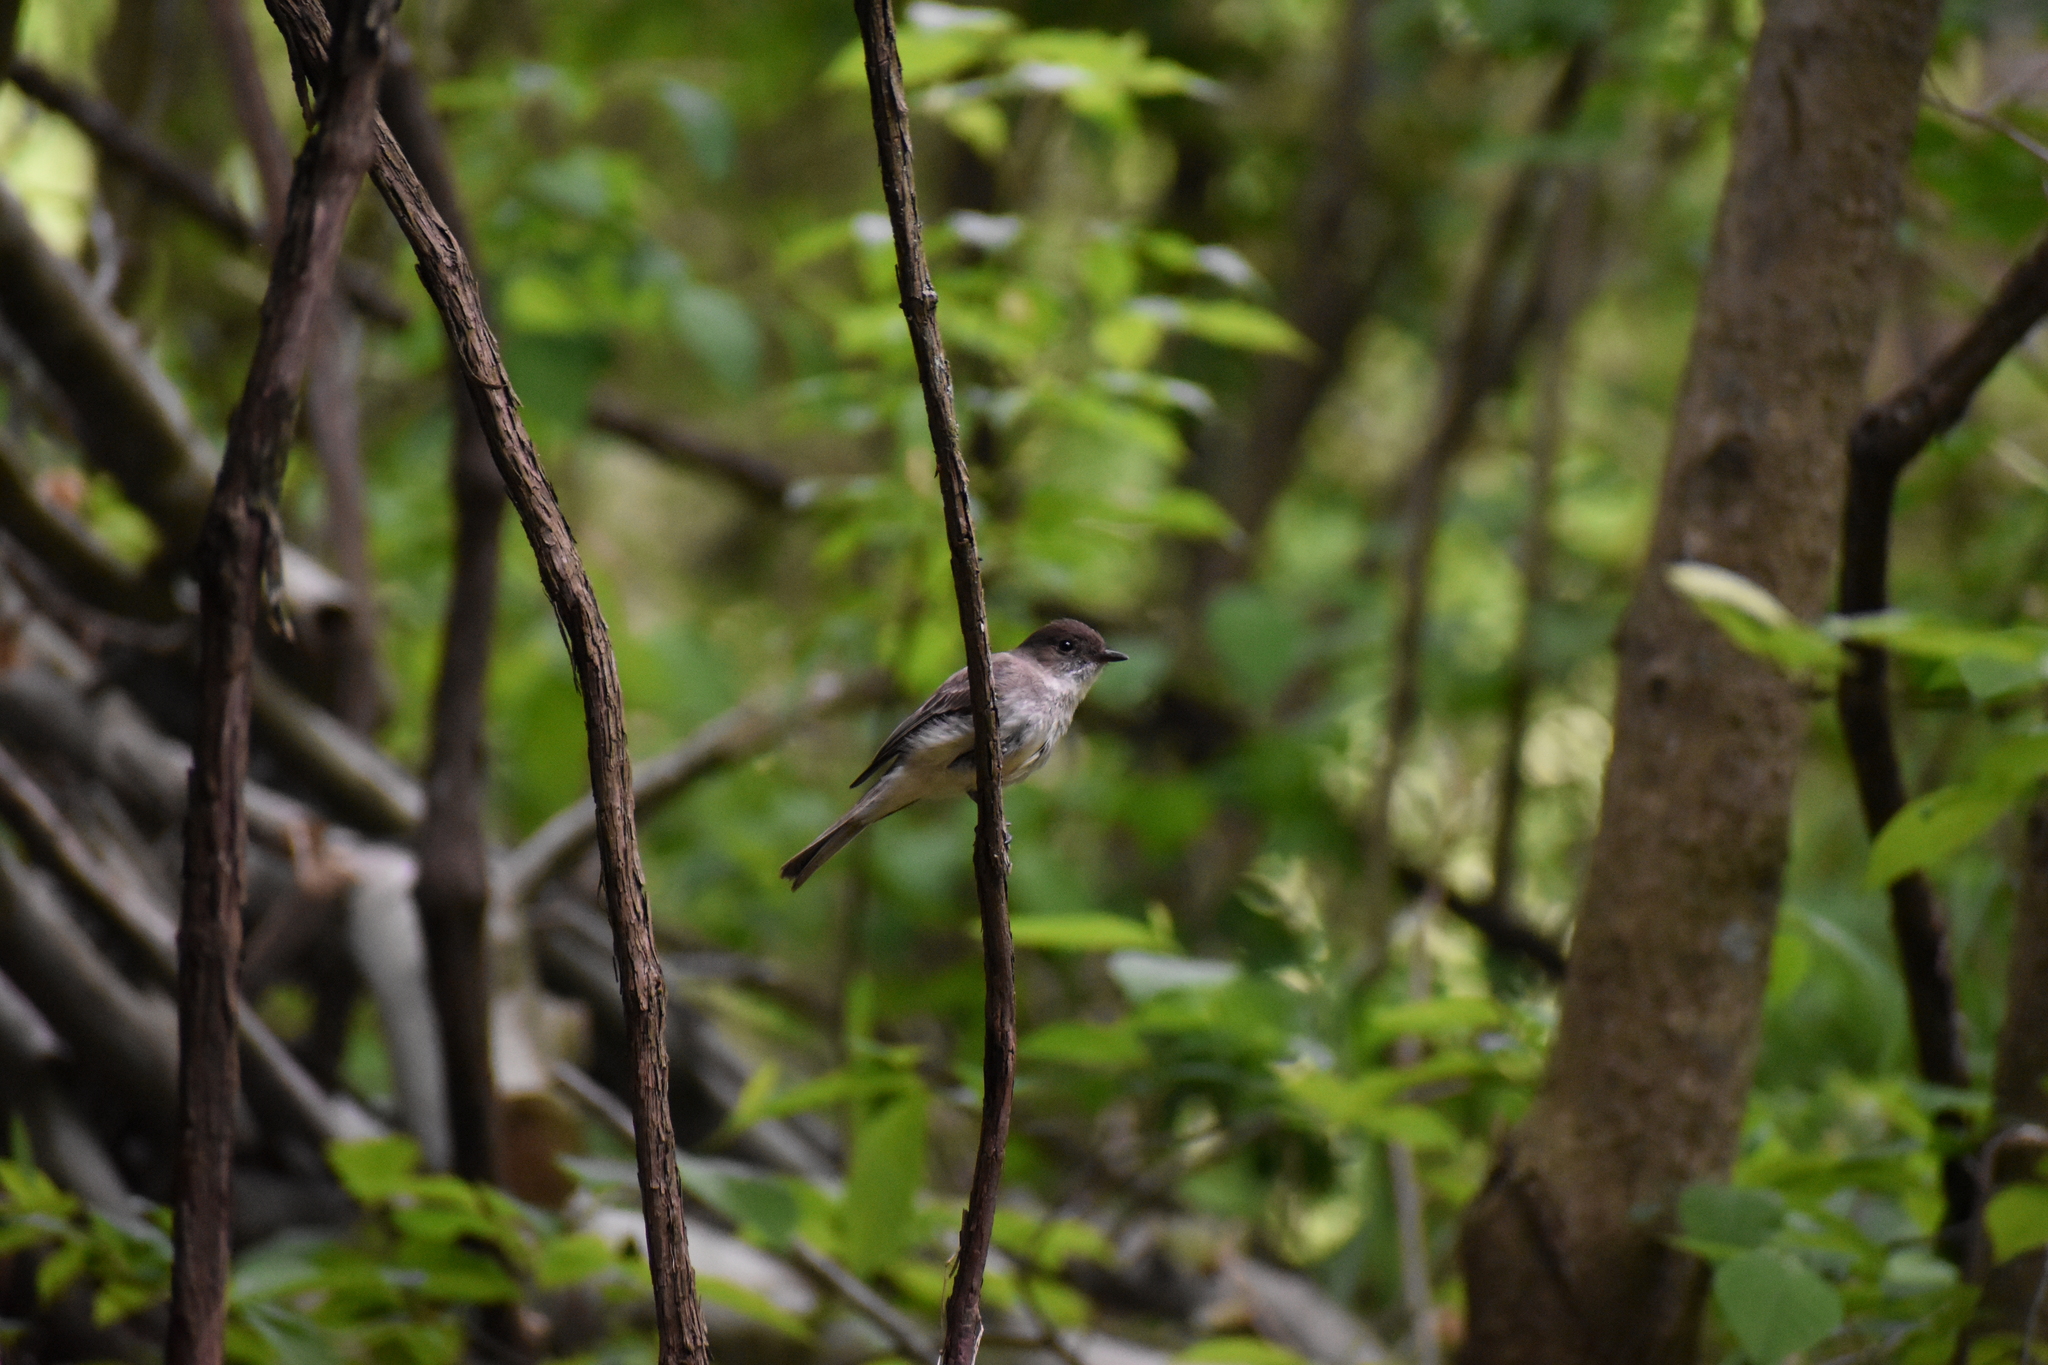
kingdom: Animalia
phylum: Chordata
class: Aves
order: Passeriformes
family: Tyrannidae
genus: Sayornis
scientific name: Sayornis phoebe
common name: Eastern phoebe
